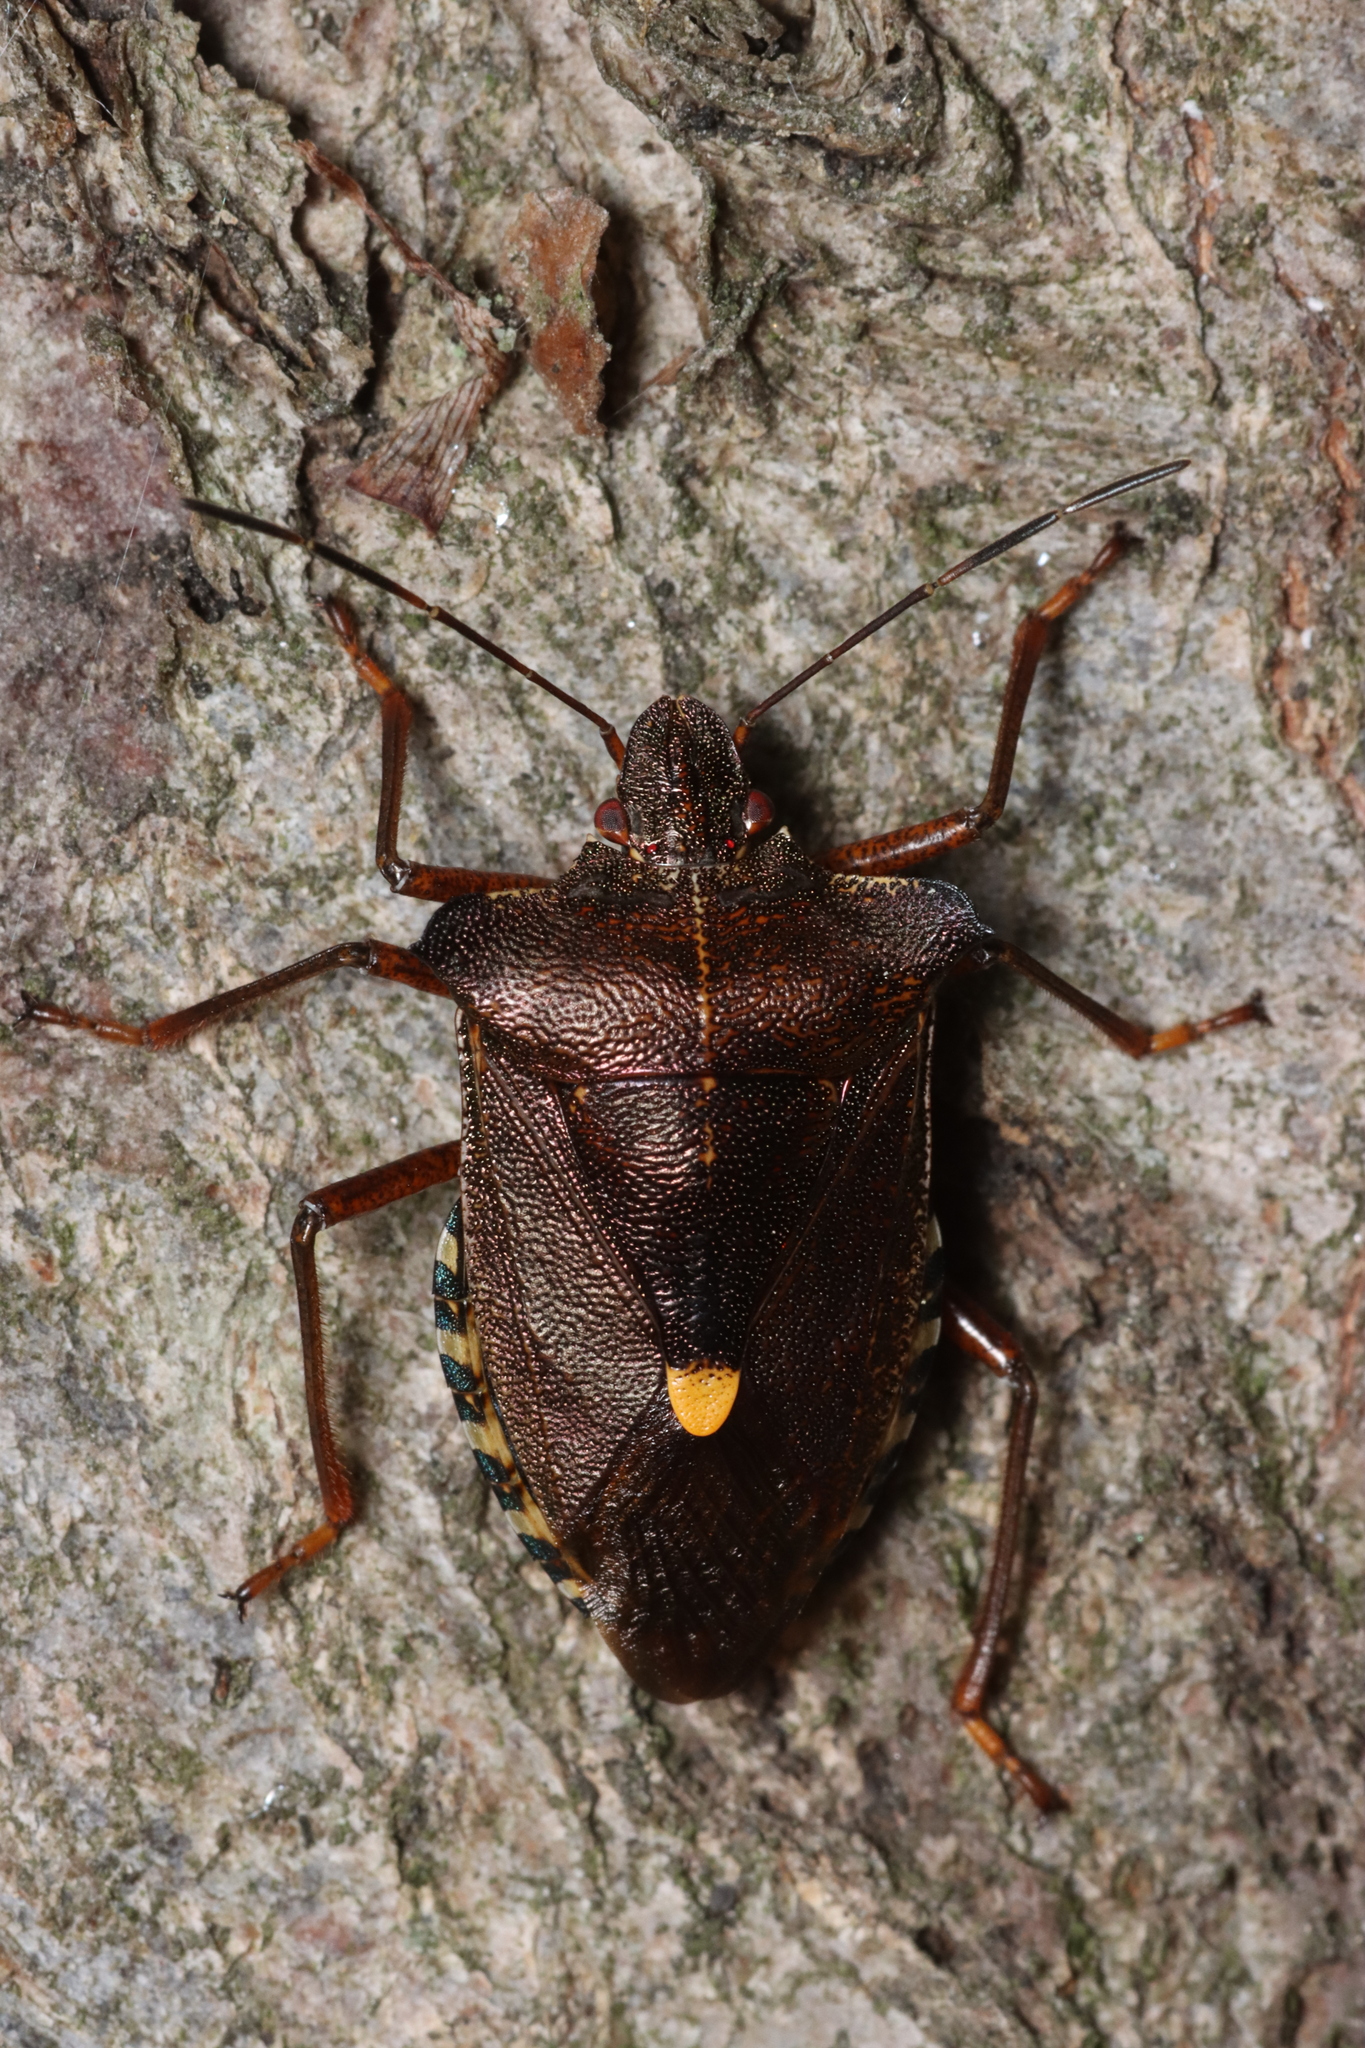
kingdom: Animalia
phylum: Arthropoda
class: Insecta
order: Hemiptera
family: Pentatomidae
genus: Pentatoma
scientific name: Pentatoma rufipes
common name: Forest bug
